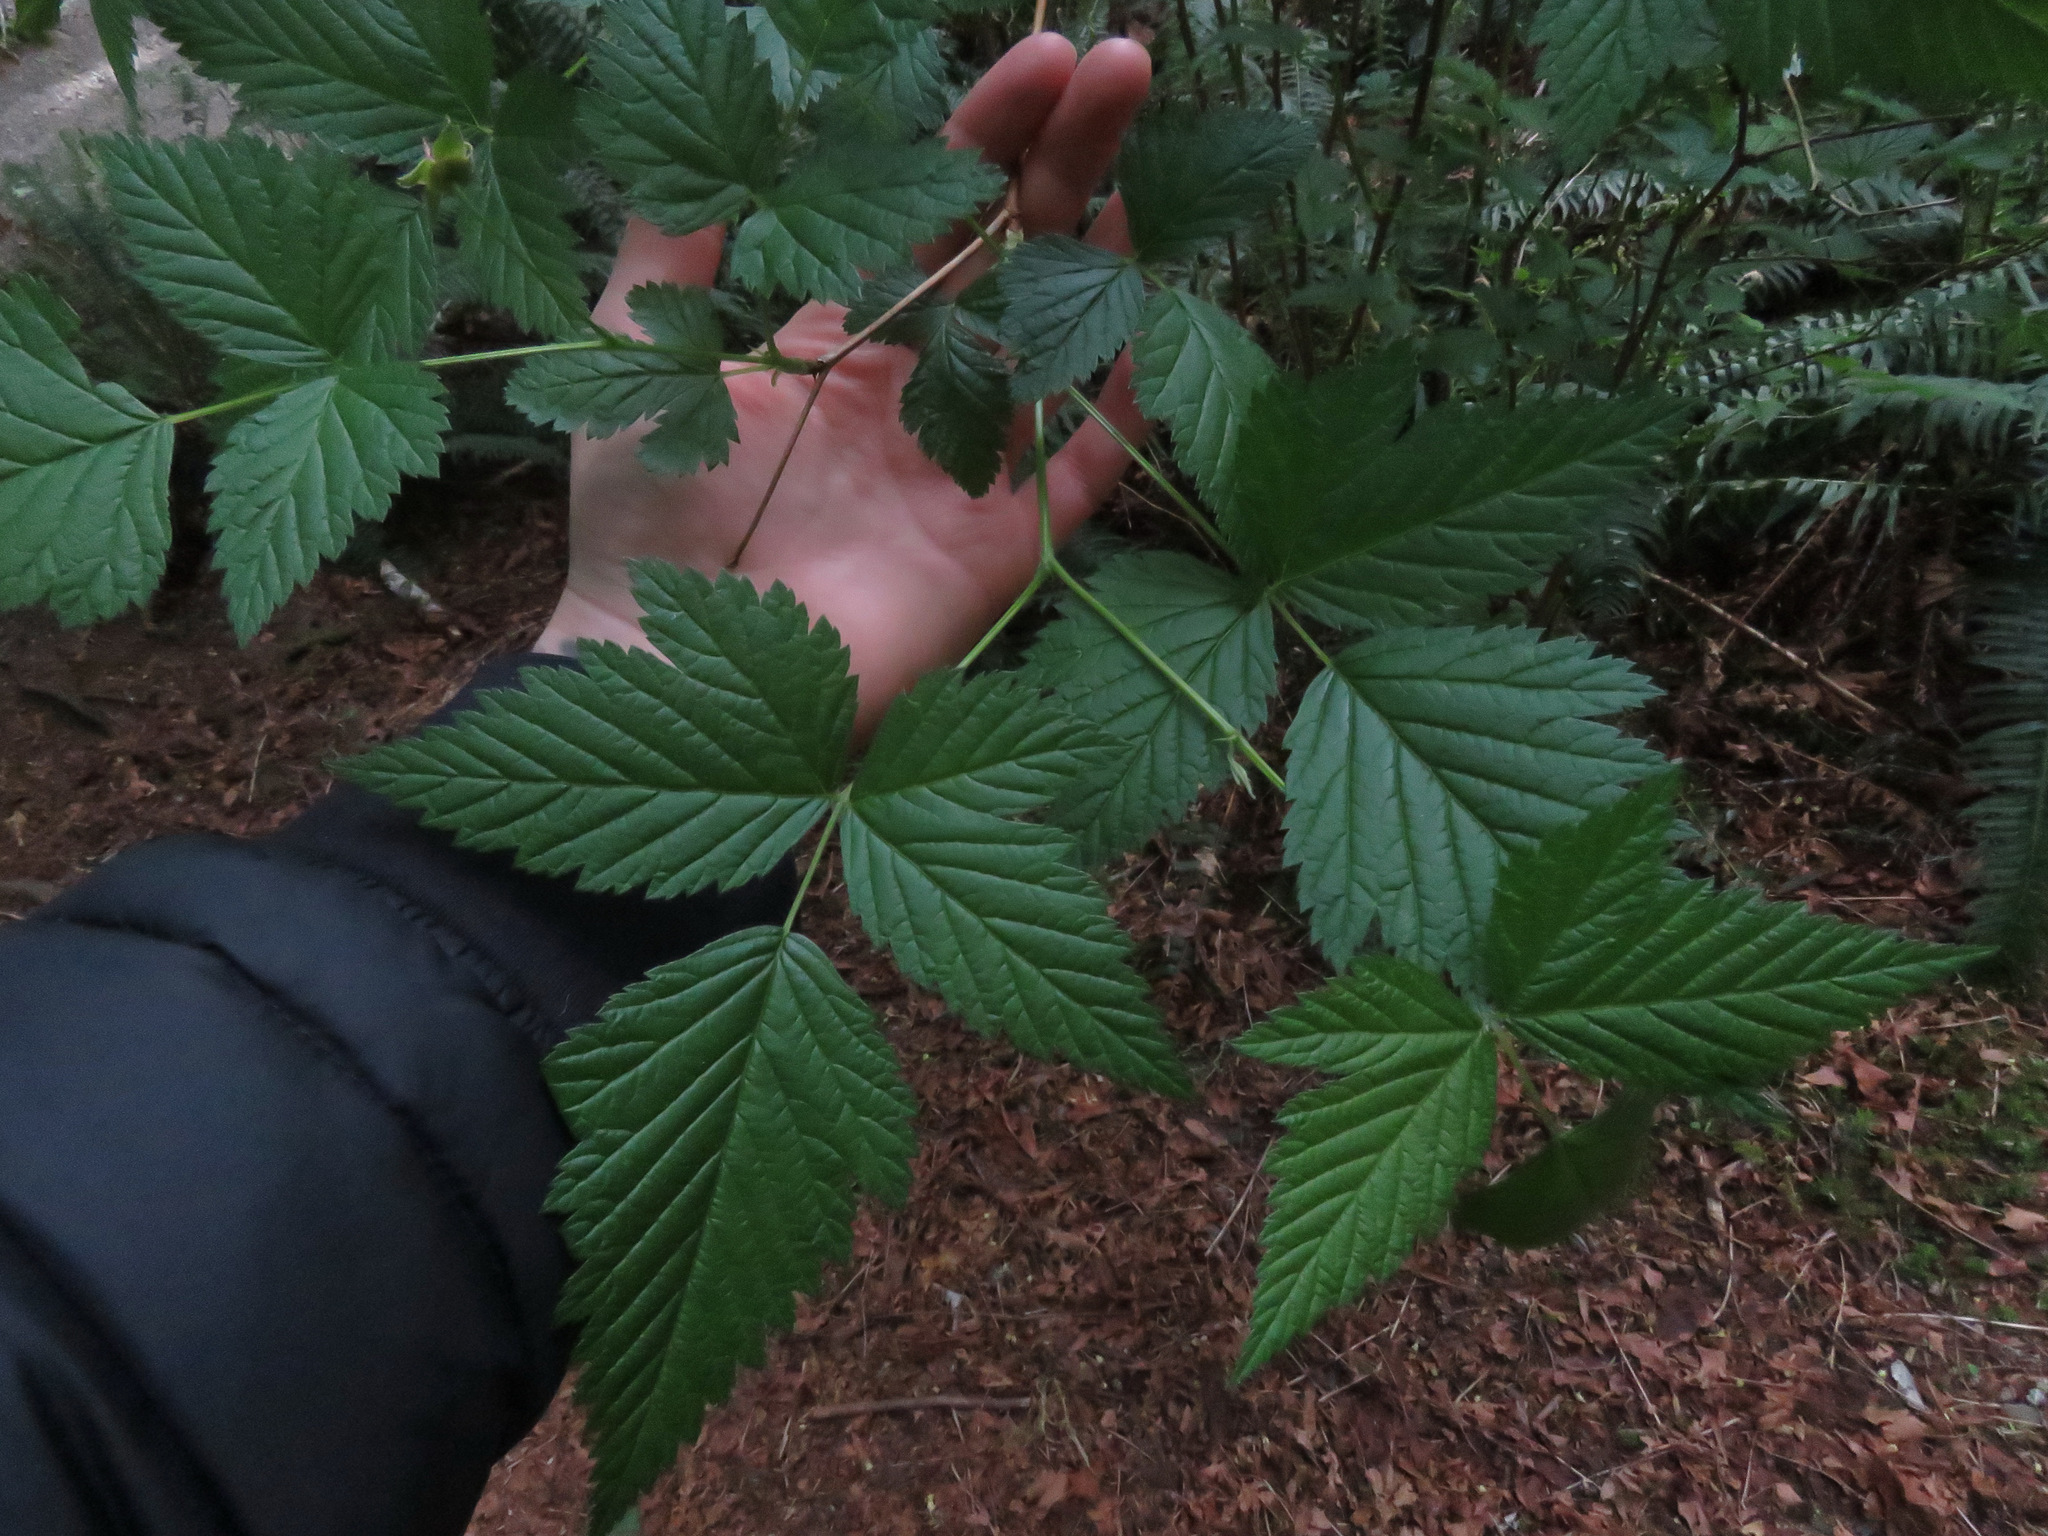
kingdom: Plantae
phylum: Tracheophyta
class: Magnoliopsida
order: Rosales
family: Rosaceae
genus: Rubus
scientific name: Rubus spectabilis
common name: Salmonberry
